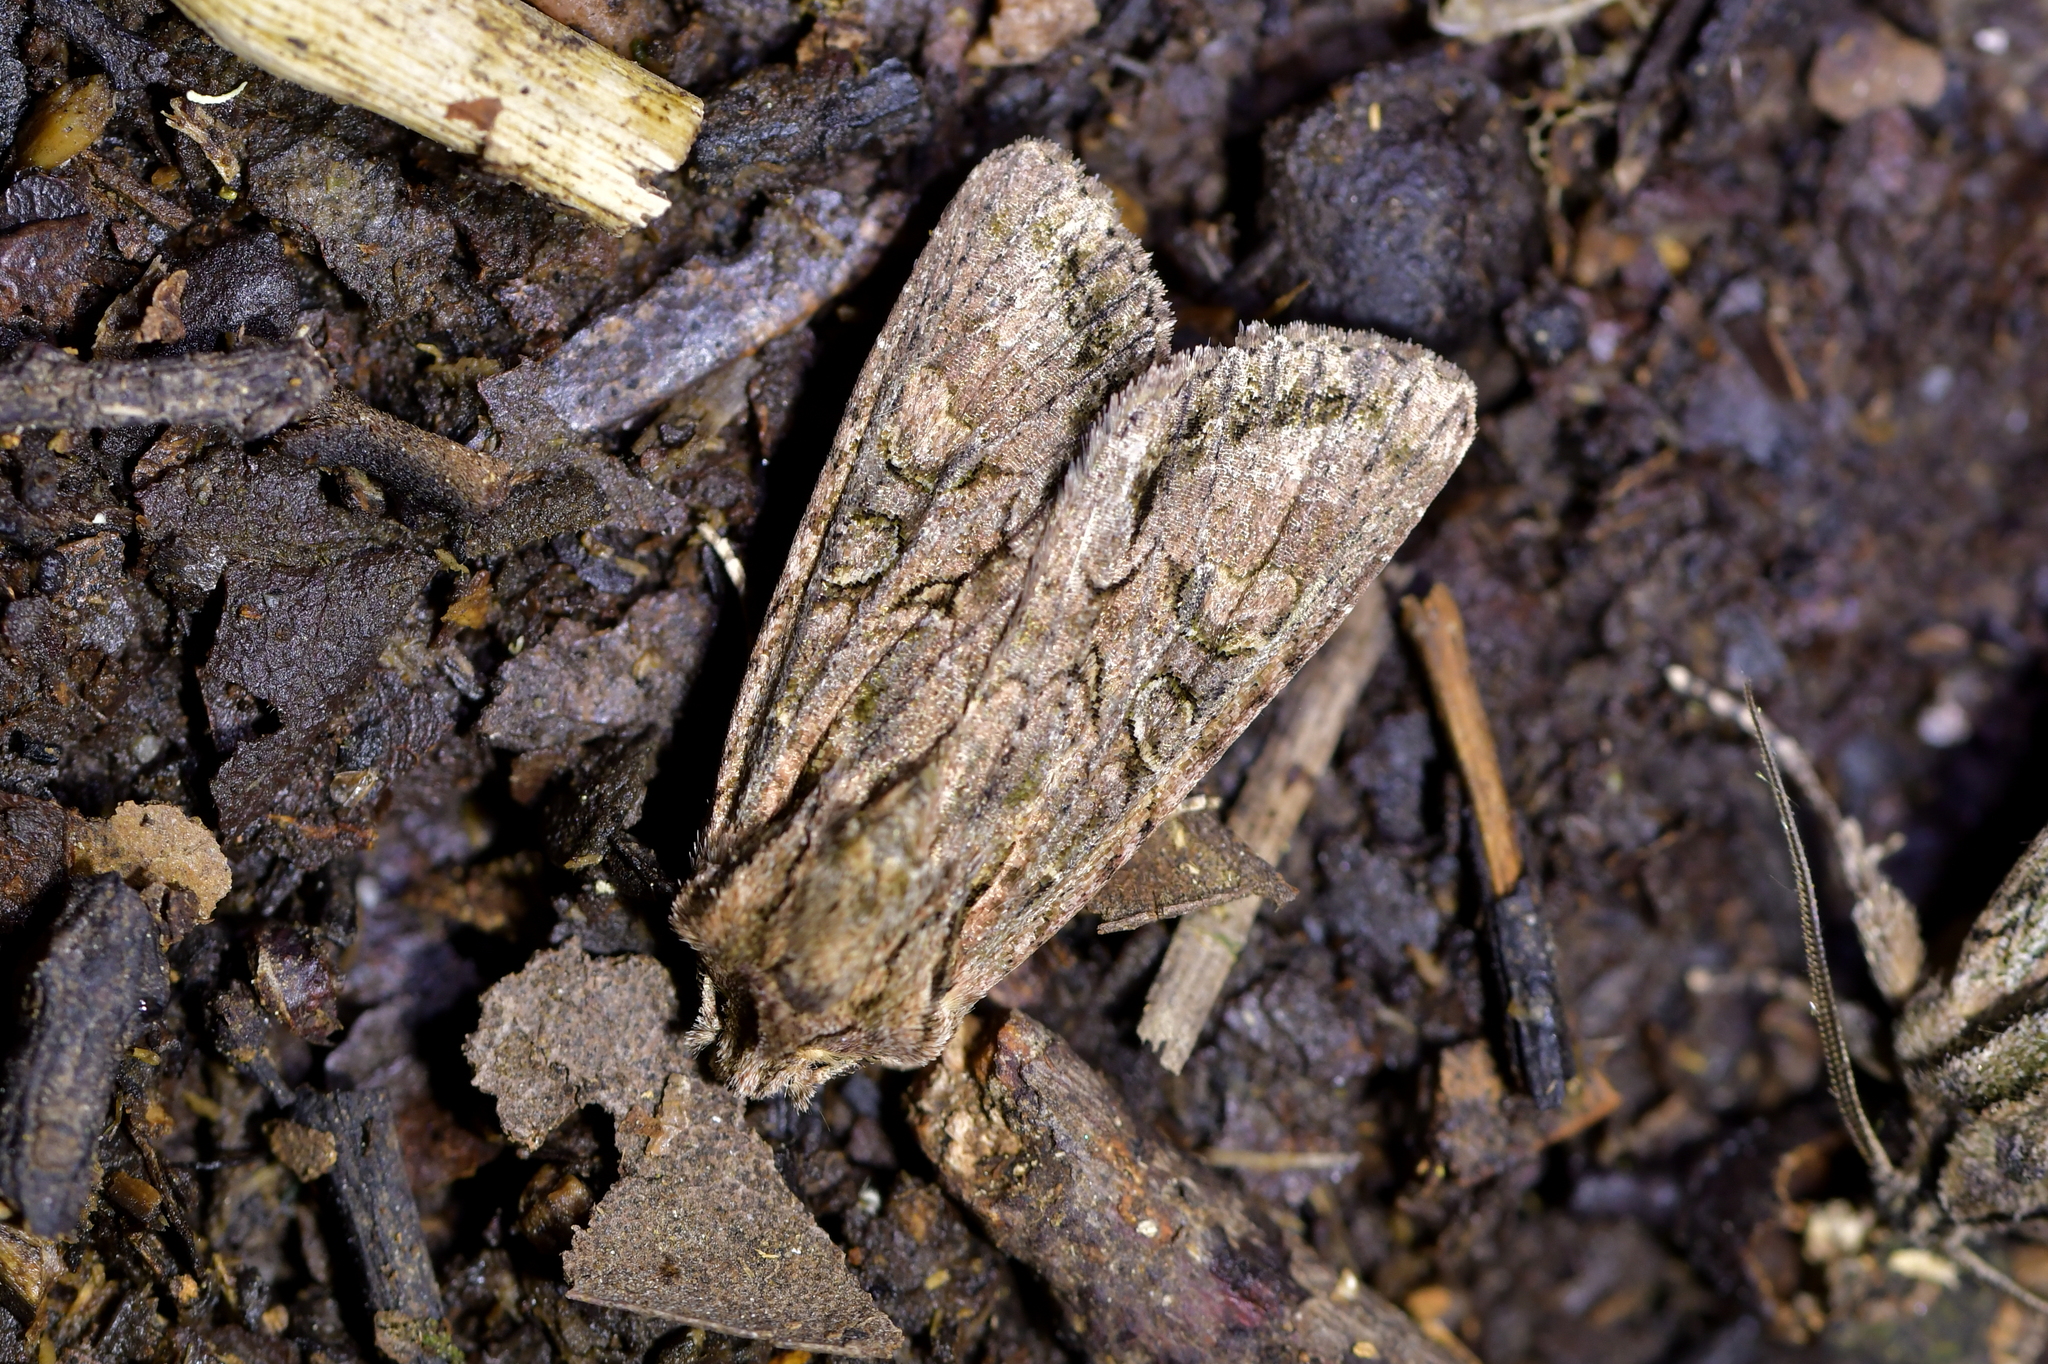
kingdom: Animalia
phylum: Arthropoda
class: Insecta
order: Lepidoptera
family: Noctuidae
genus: Ichneutica
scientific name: Ichneutica mutans
